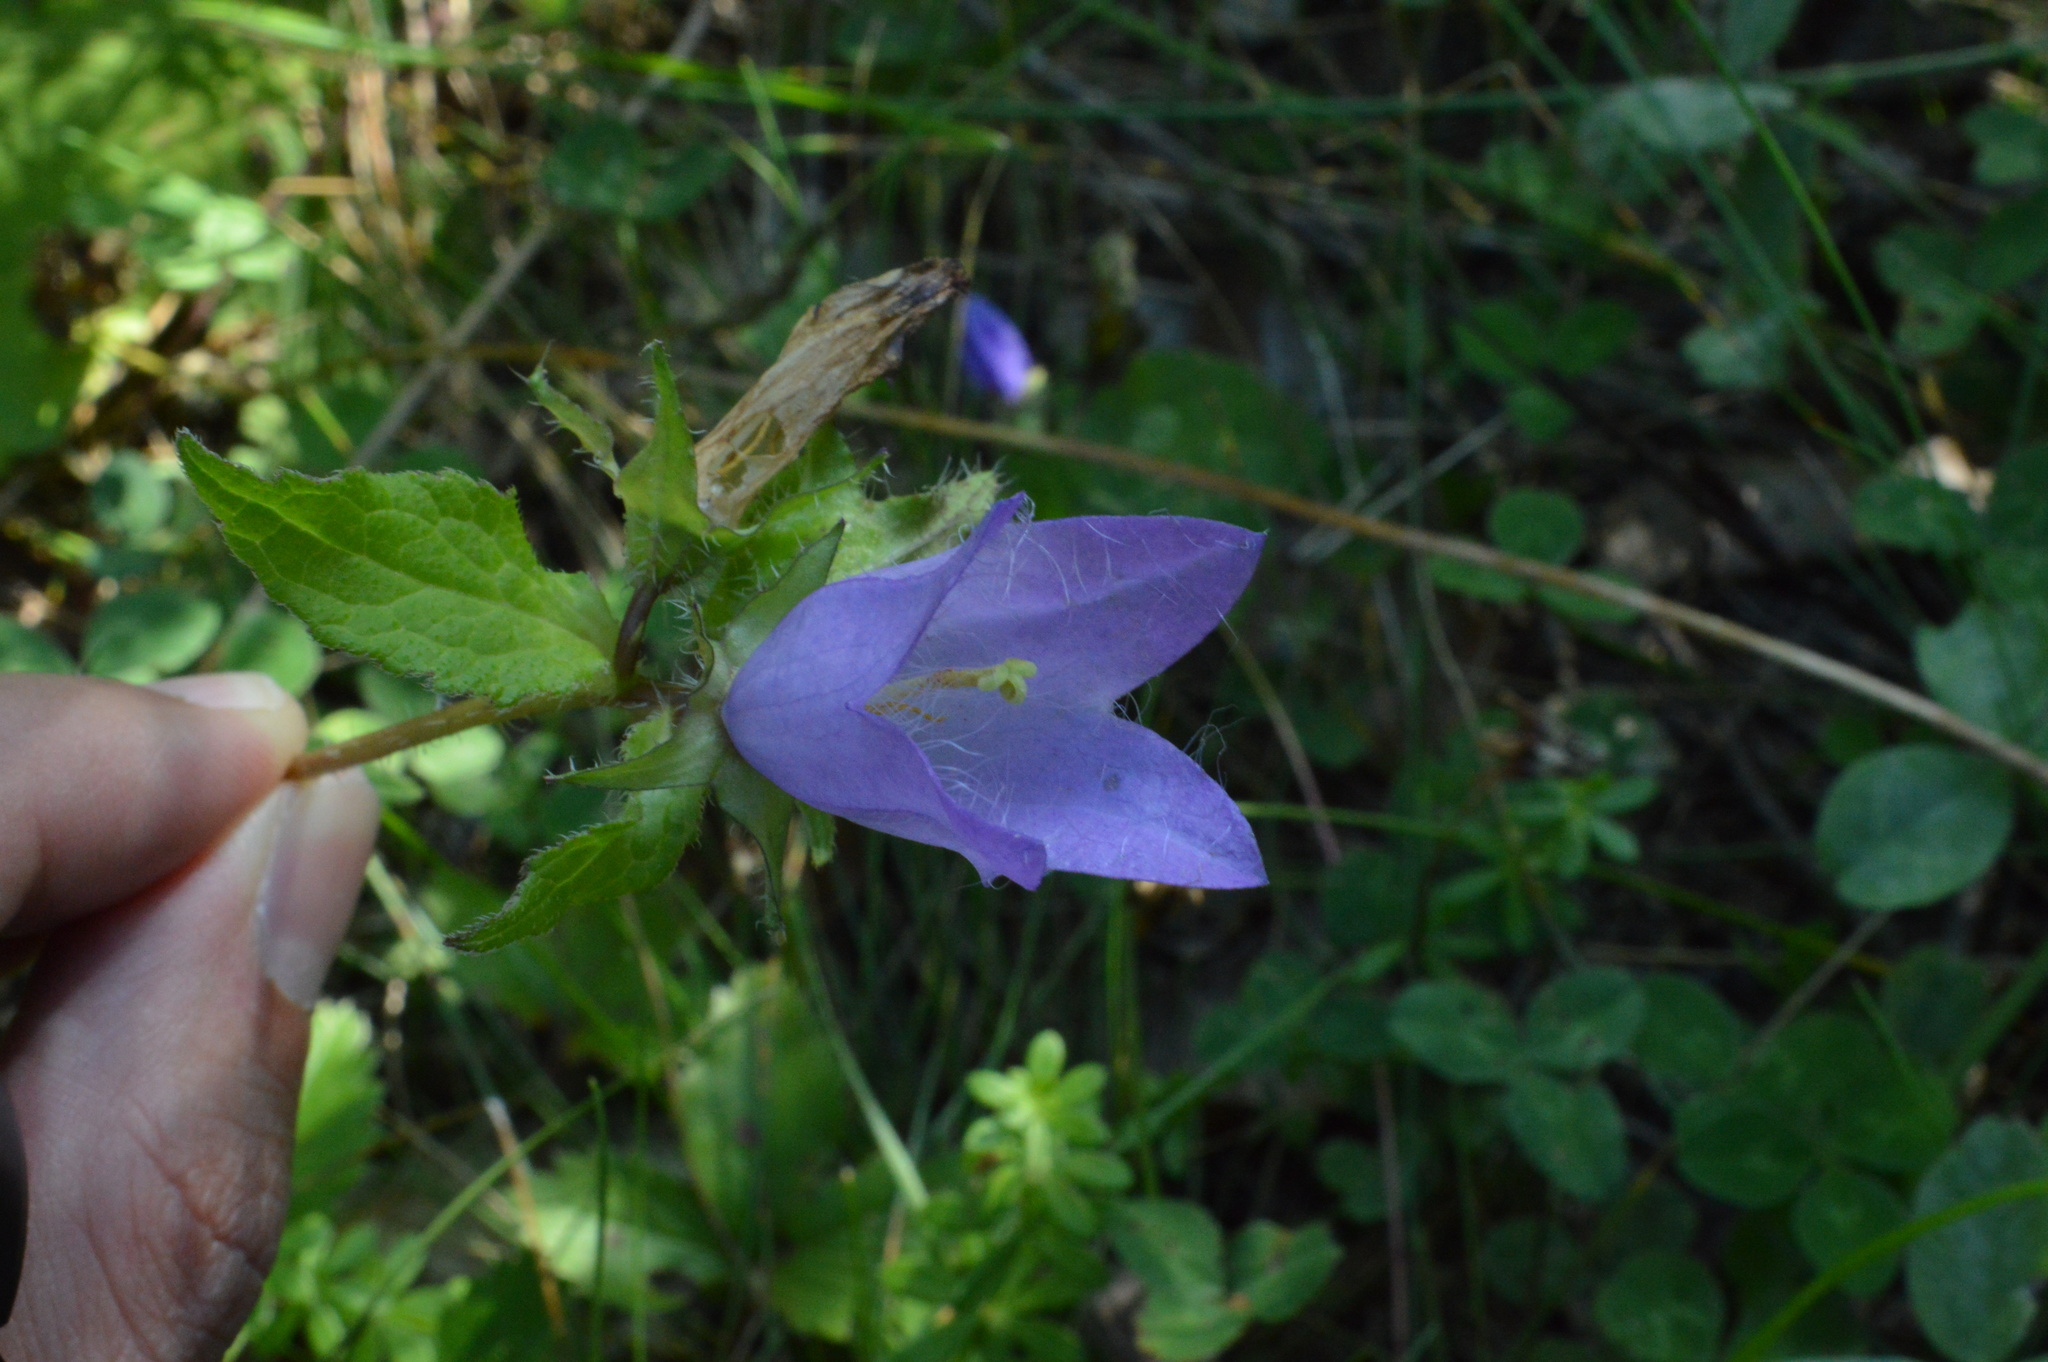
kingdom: Plantae
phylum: Tracheophyta
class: Magnoliopsida
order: Asterales
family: Campanulaceae
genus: Campanula
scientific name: Campanula trachelium
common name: Nettle-leaved bellflower
